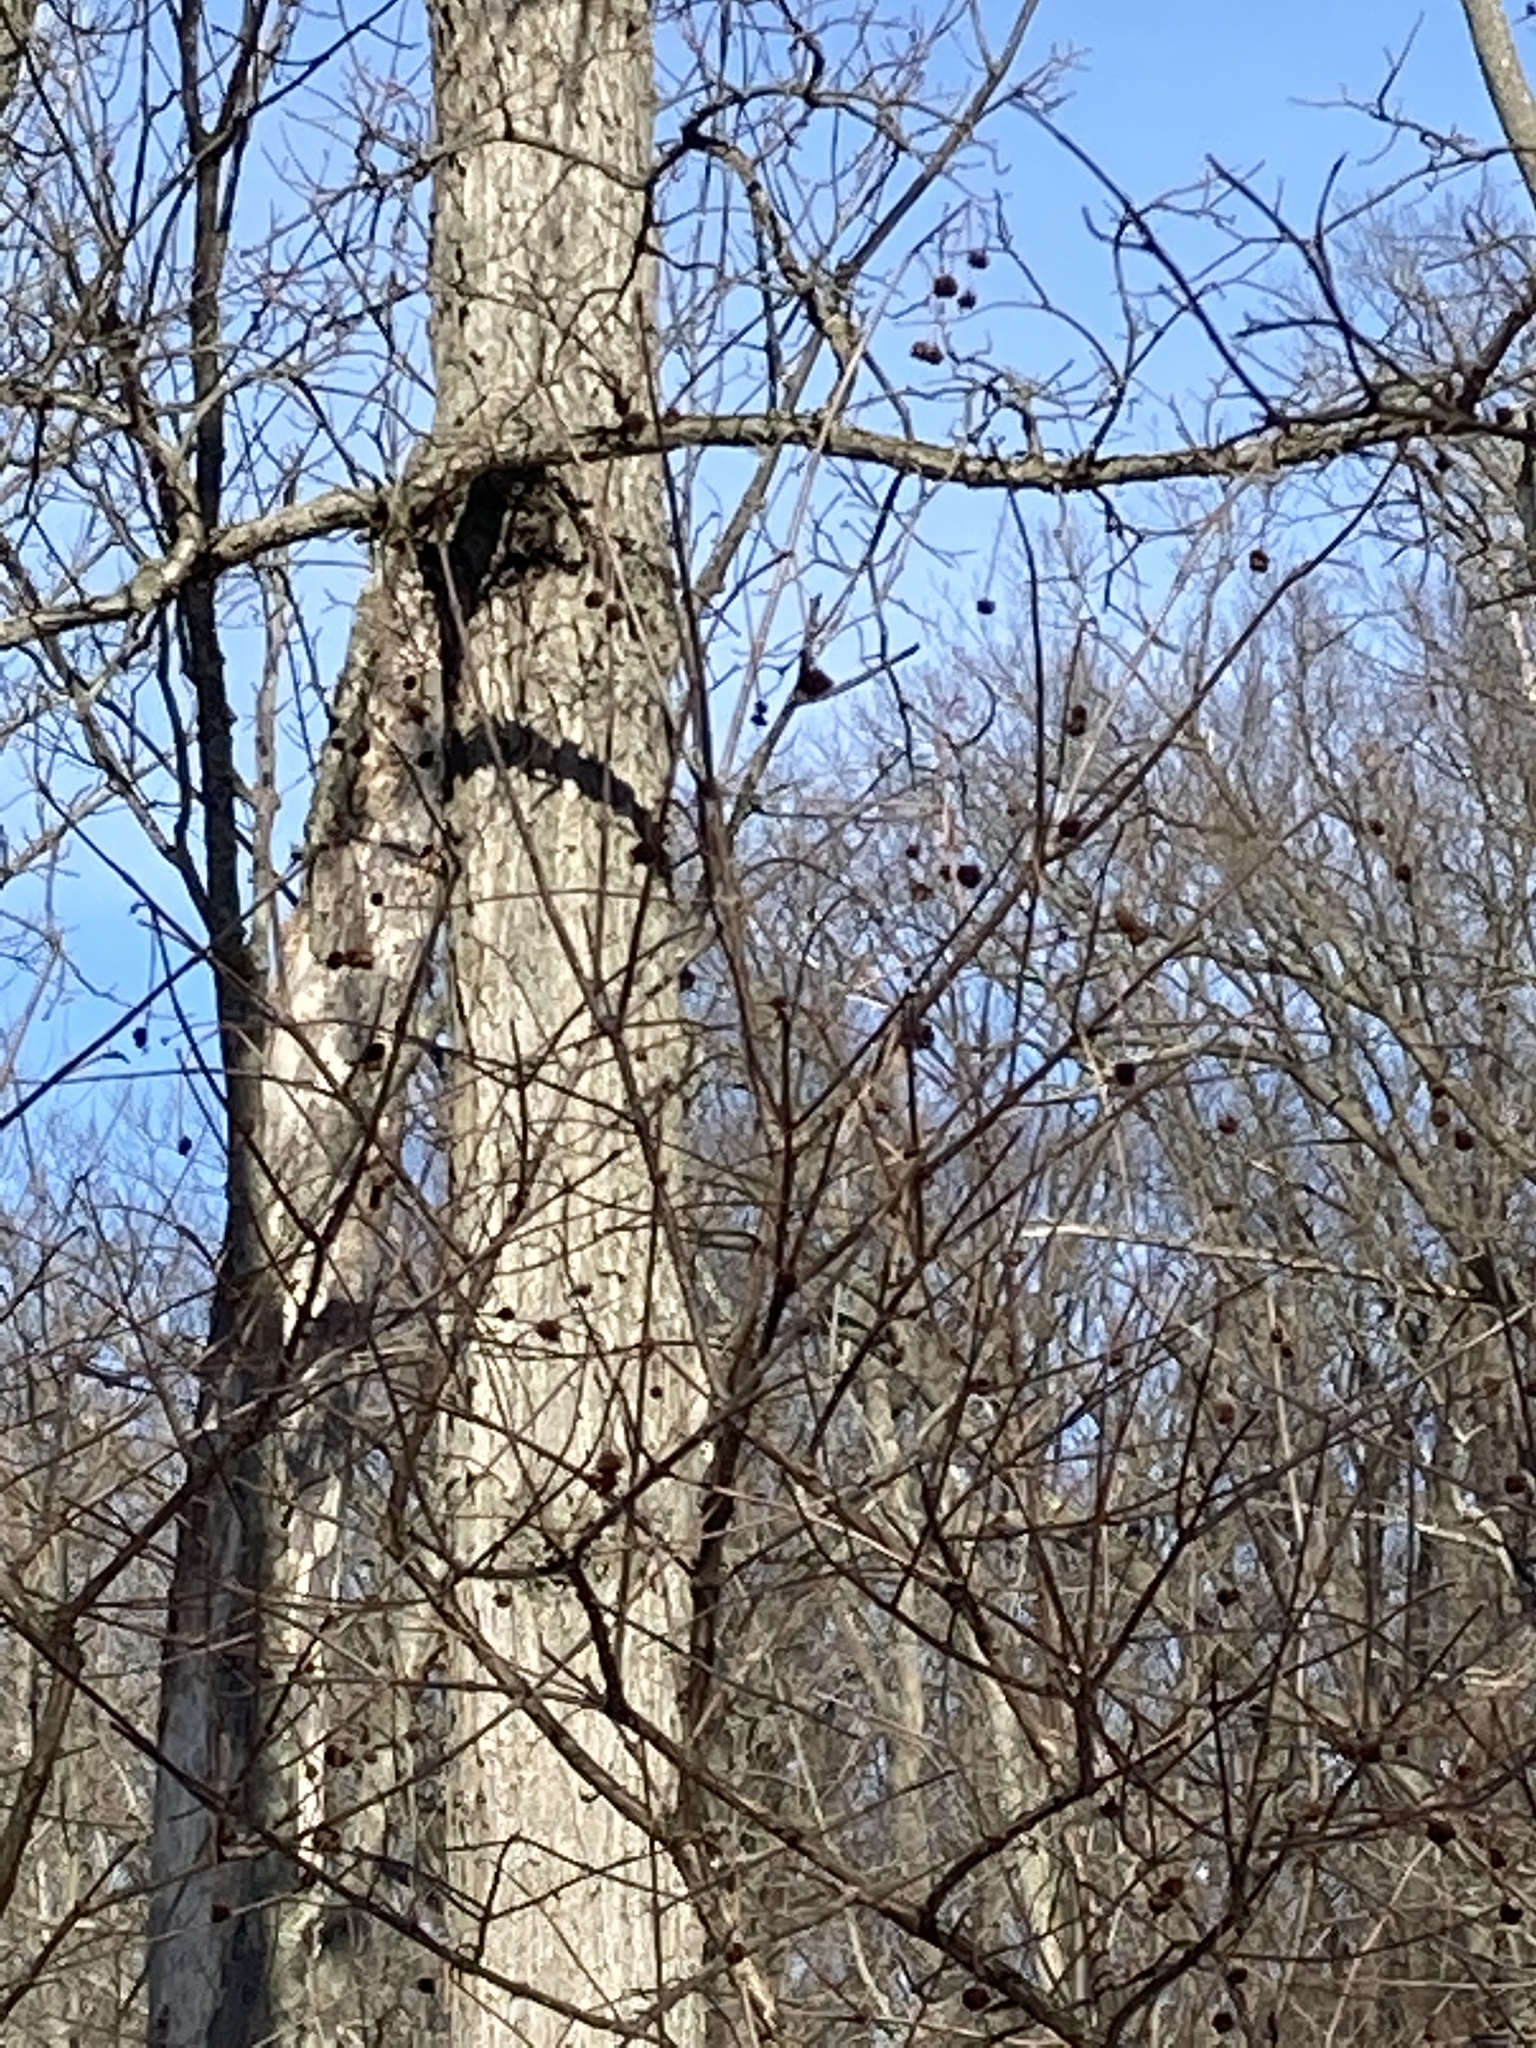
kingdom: Plantae
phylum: Tracheophyta
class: Magnoliopsida
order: Gentianales
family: Rubiaceae
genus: Cephalanthus
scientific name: Cephalanthus occidentalis
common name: Button-willow
